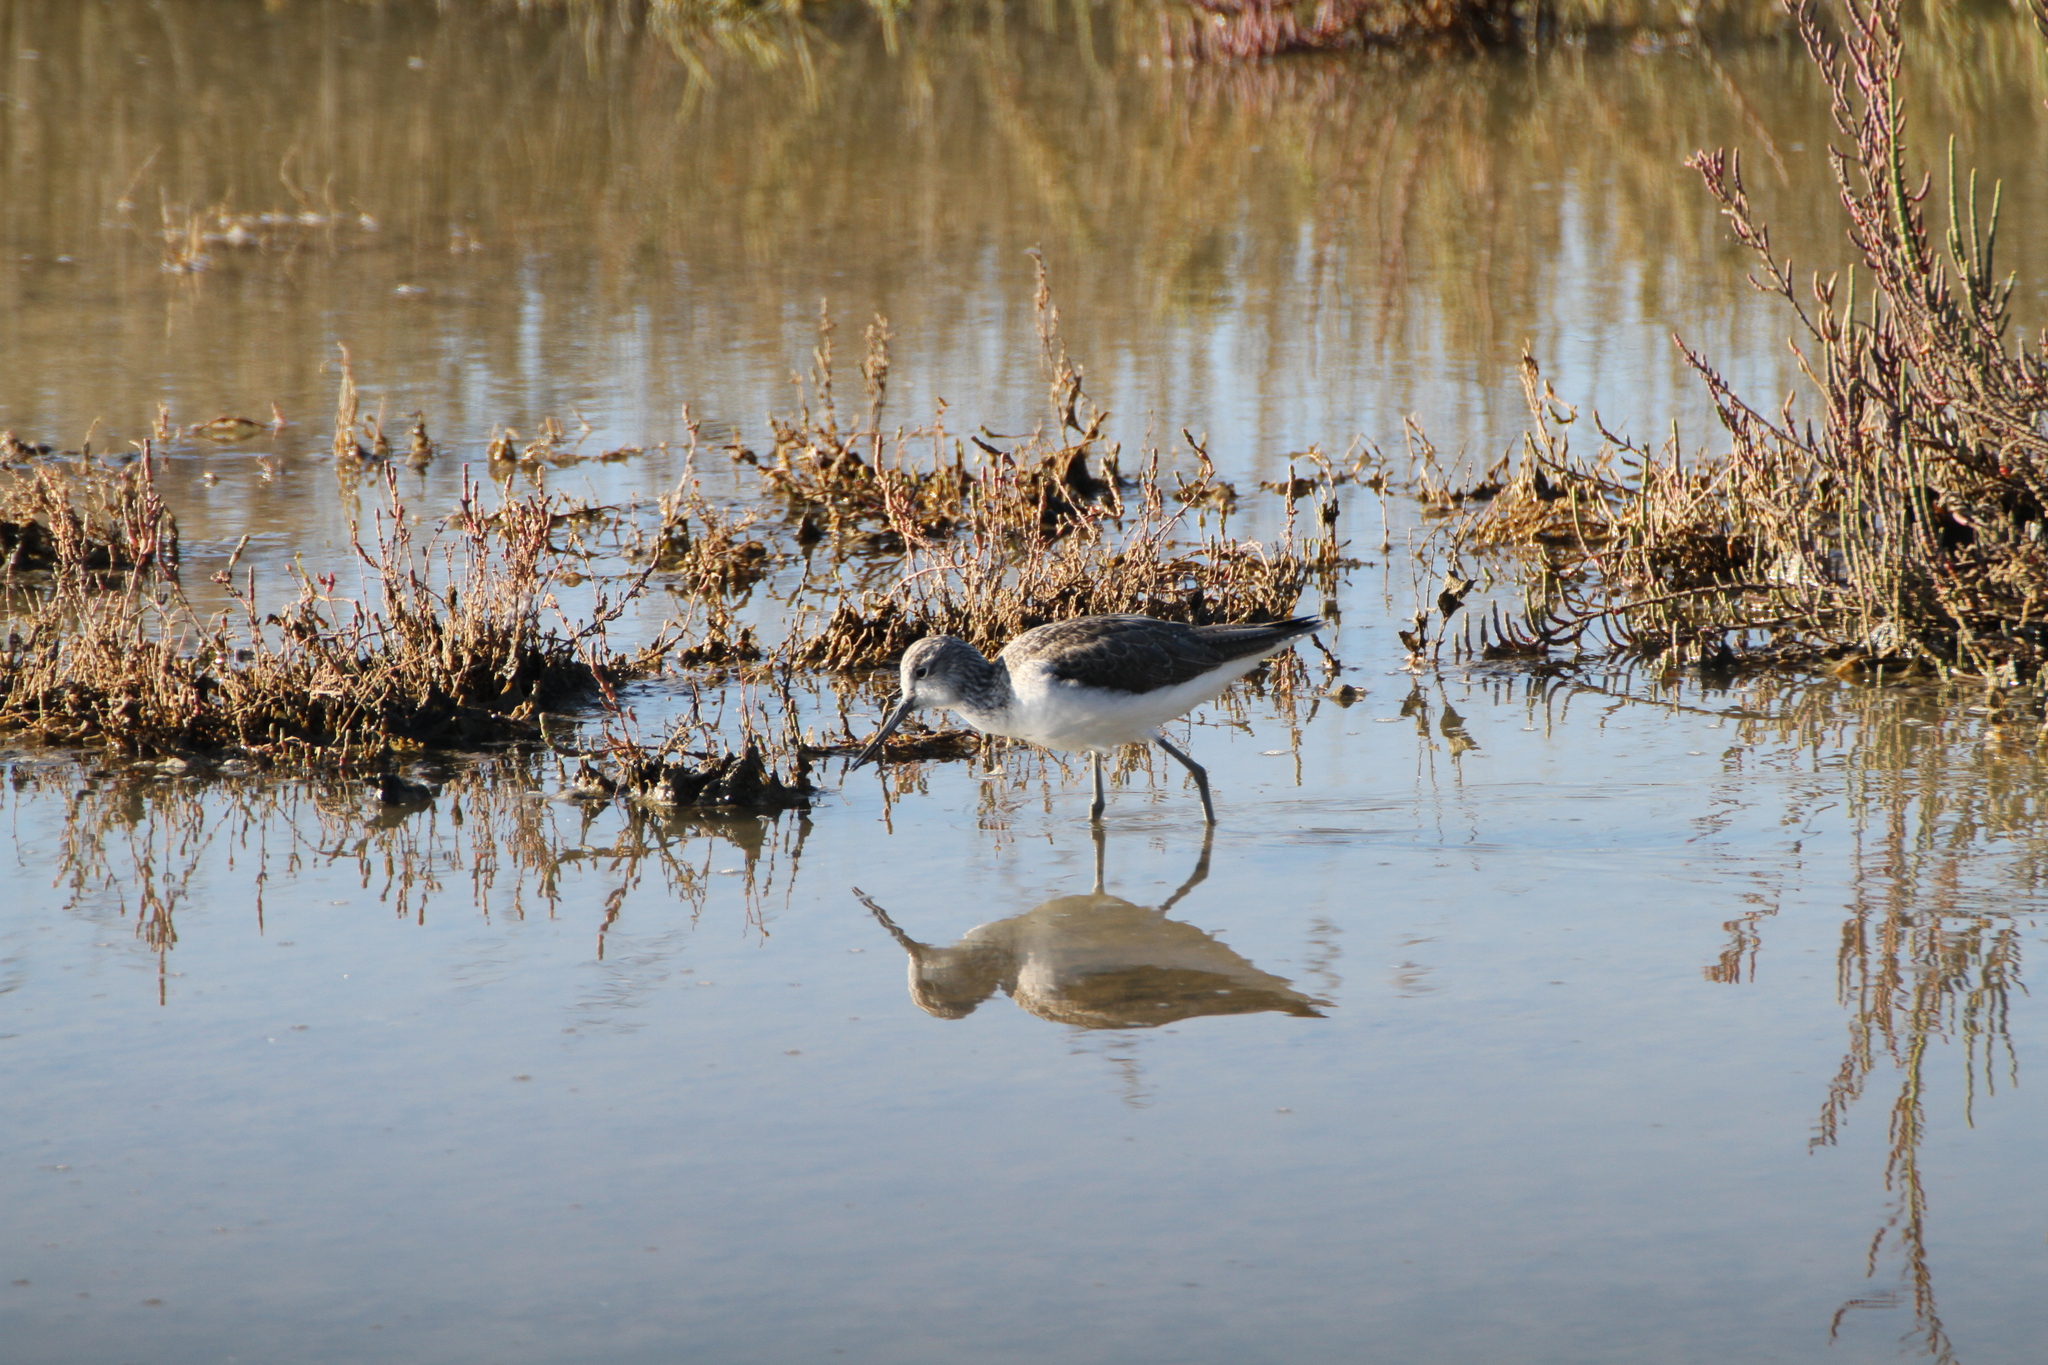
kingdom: Animalia
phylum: Chordata
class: Aves
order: Charadriiformes
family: Scolopacidae
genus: Tringa
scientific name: Tringa nebularia
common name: Common greenshank
